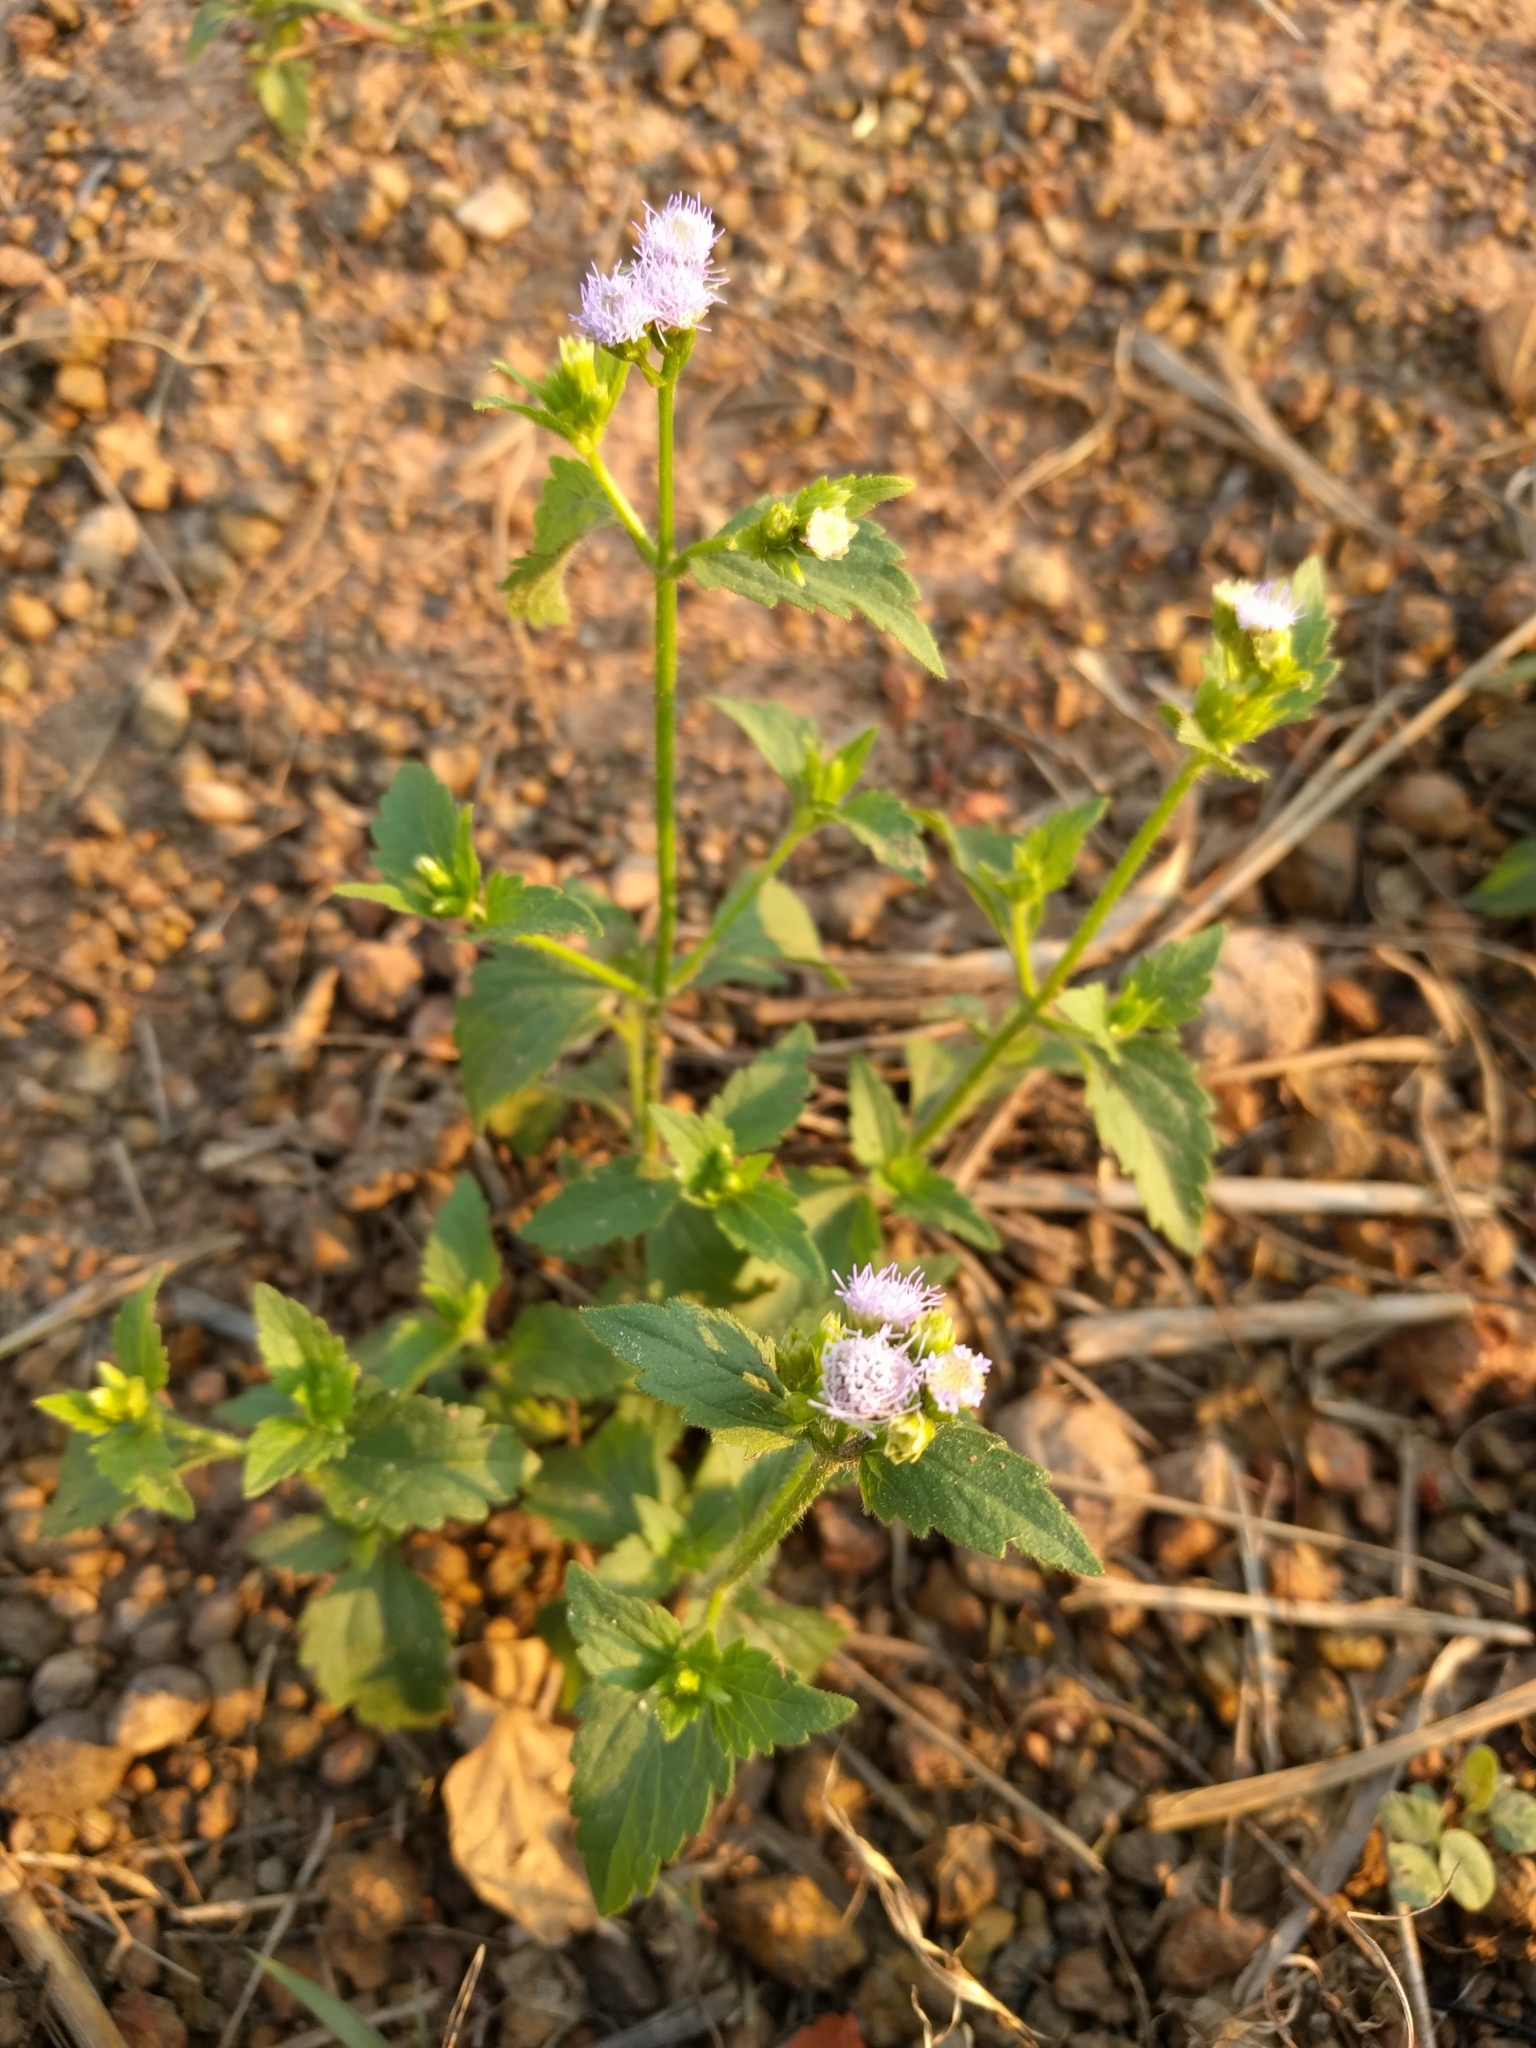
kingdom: Plantae
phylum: Tracheophyta
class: Magnoliopsida
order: Asterales
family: Asteraceae
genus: Praxelis
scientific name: Praxelis clematidea
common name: Praxelis
